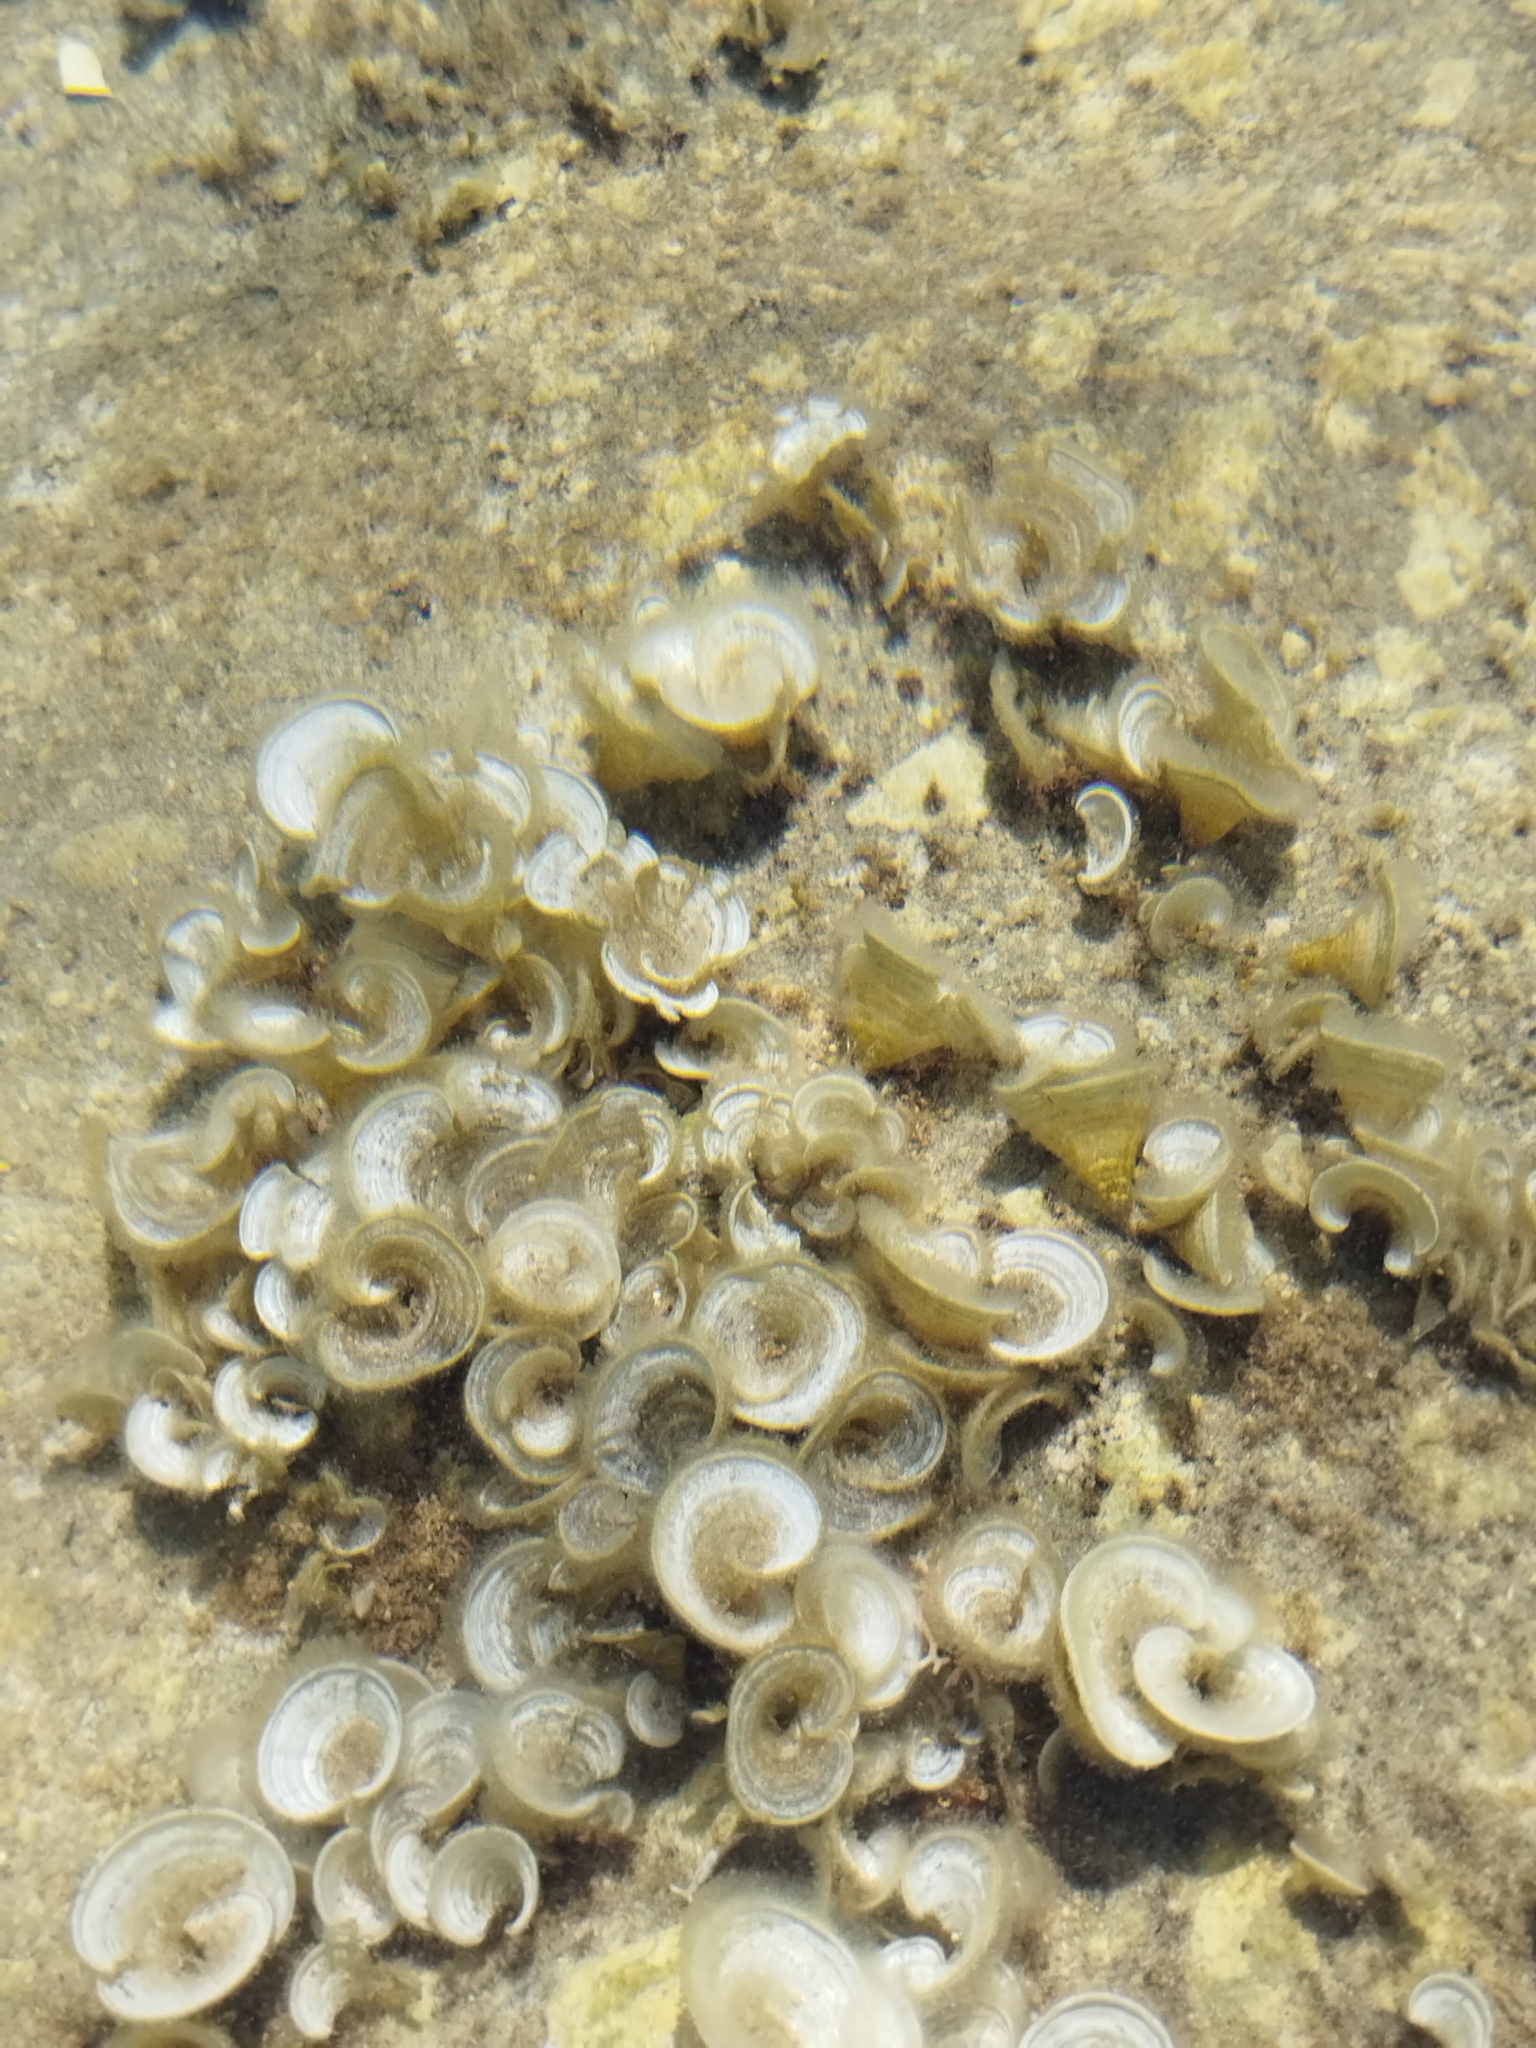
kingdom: Chromista
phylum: Ochrophyta
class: Phaeophyceae
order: Dictyotales
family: Dictyotaceae
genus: Padina
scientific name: Padina pavonica
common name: Turkey feather alga
